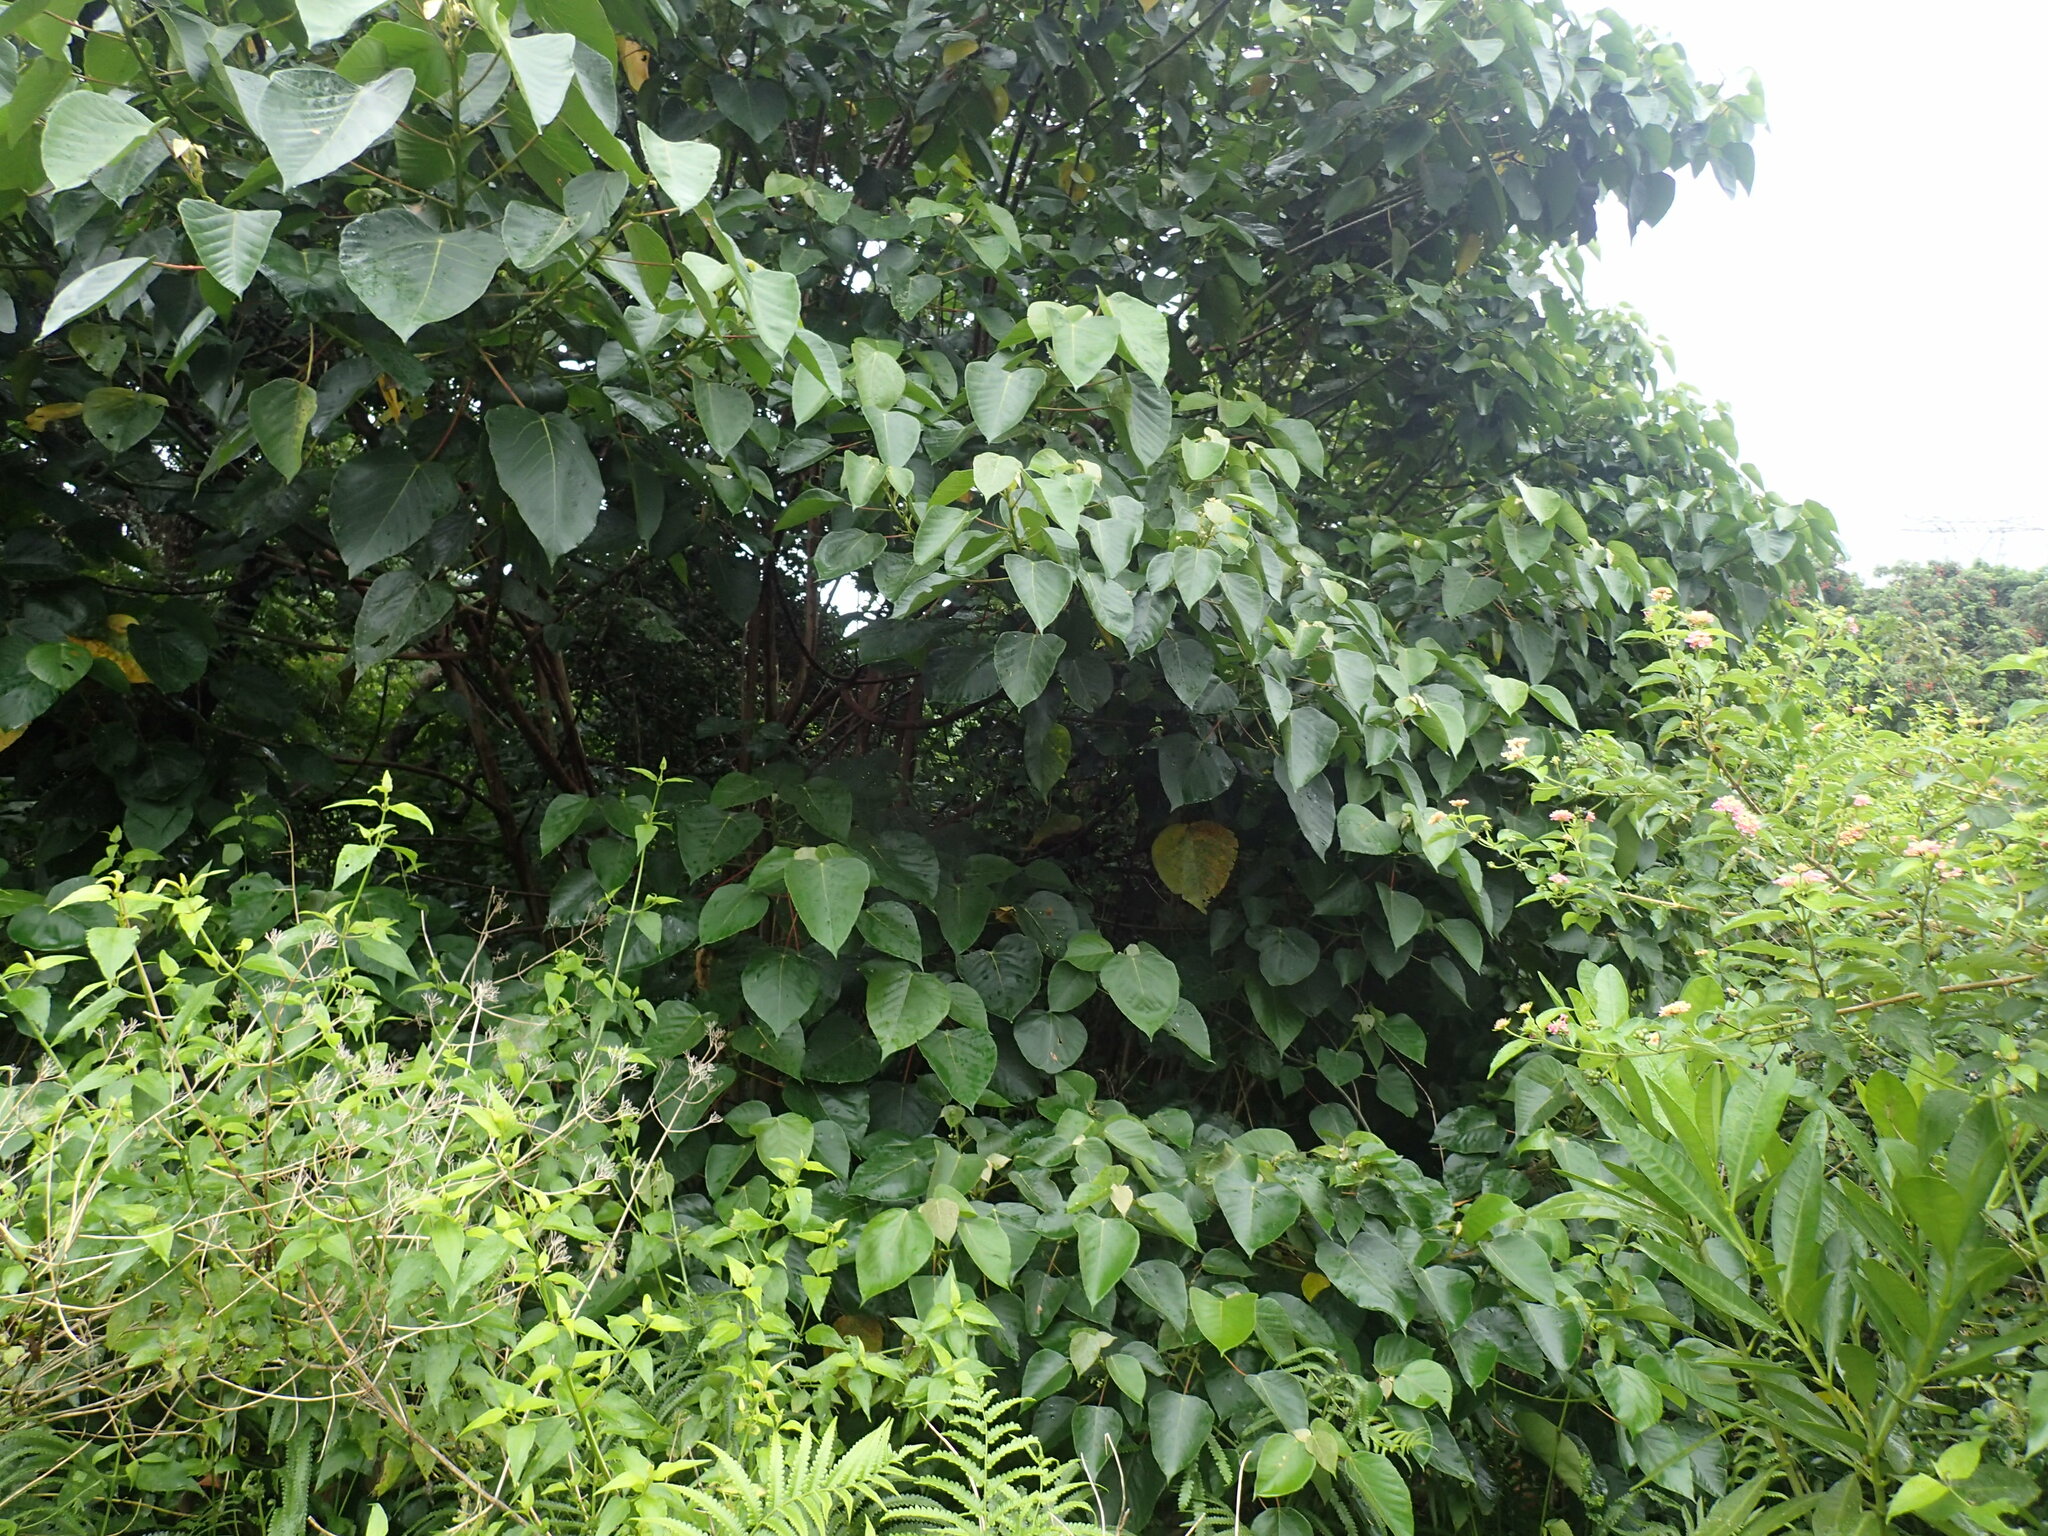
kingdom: Plantae
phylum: Tracheophyta
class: Magnoliopsida
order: Malpighiales
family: Euphorbiaceae
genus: Macaranga
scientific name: Macaranga capensis
